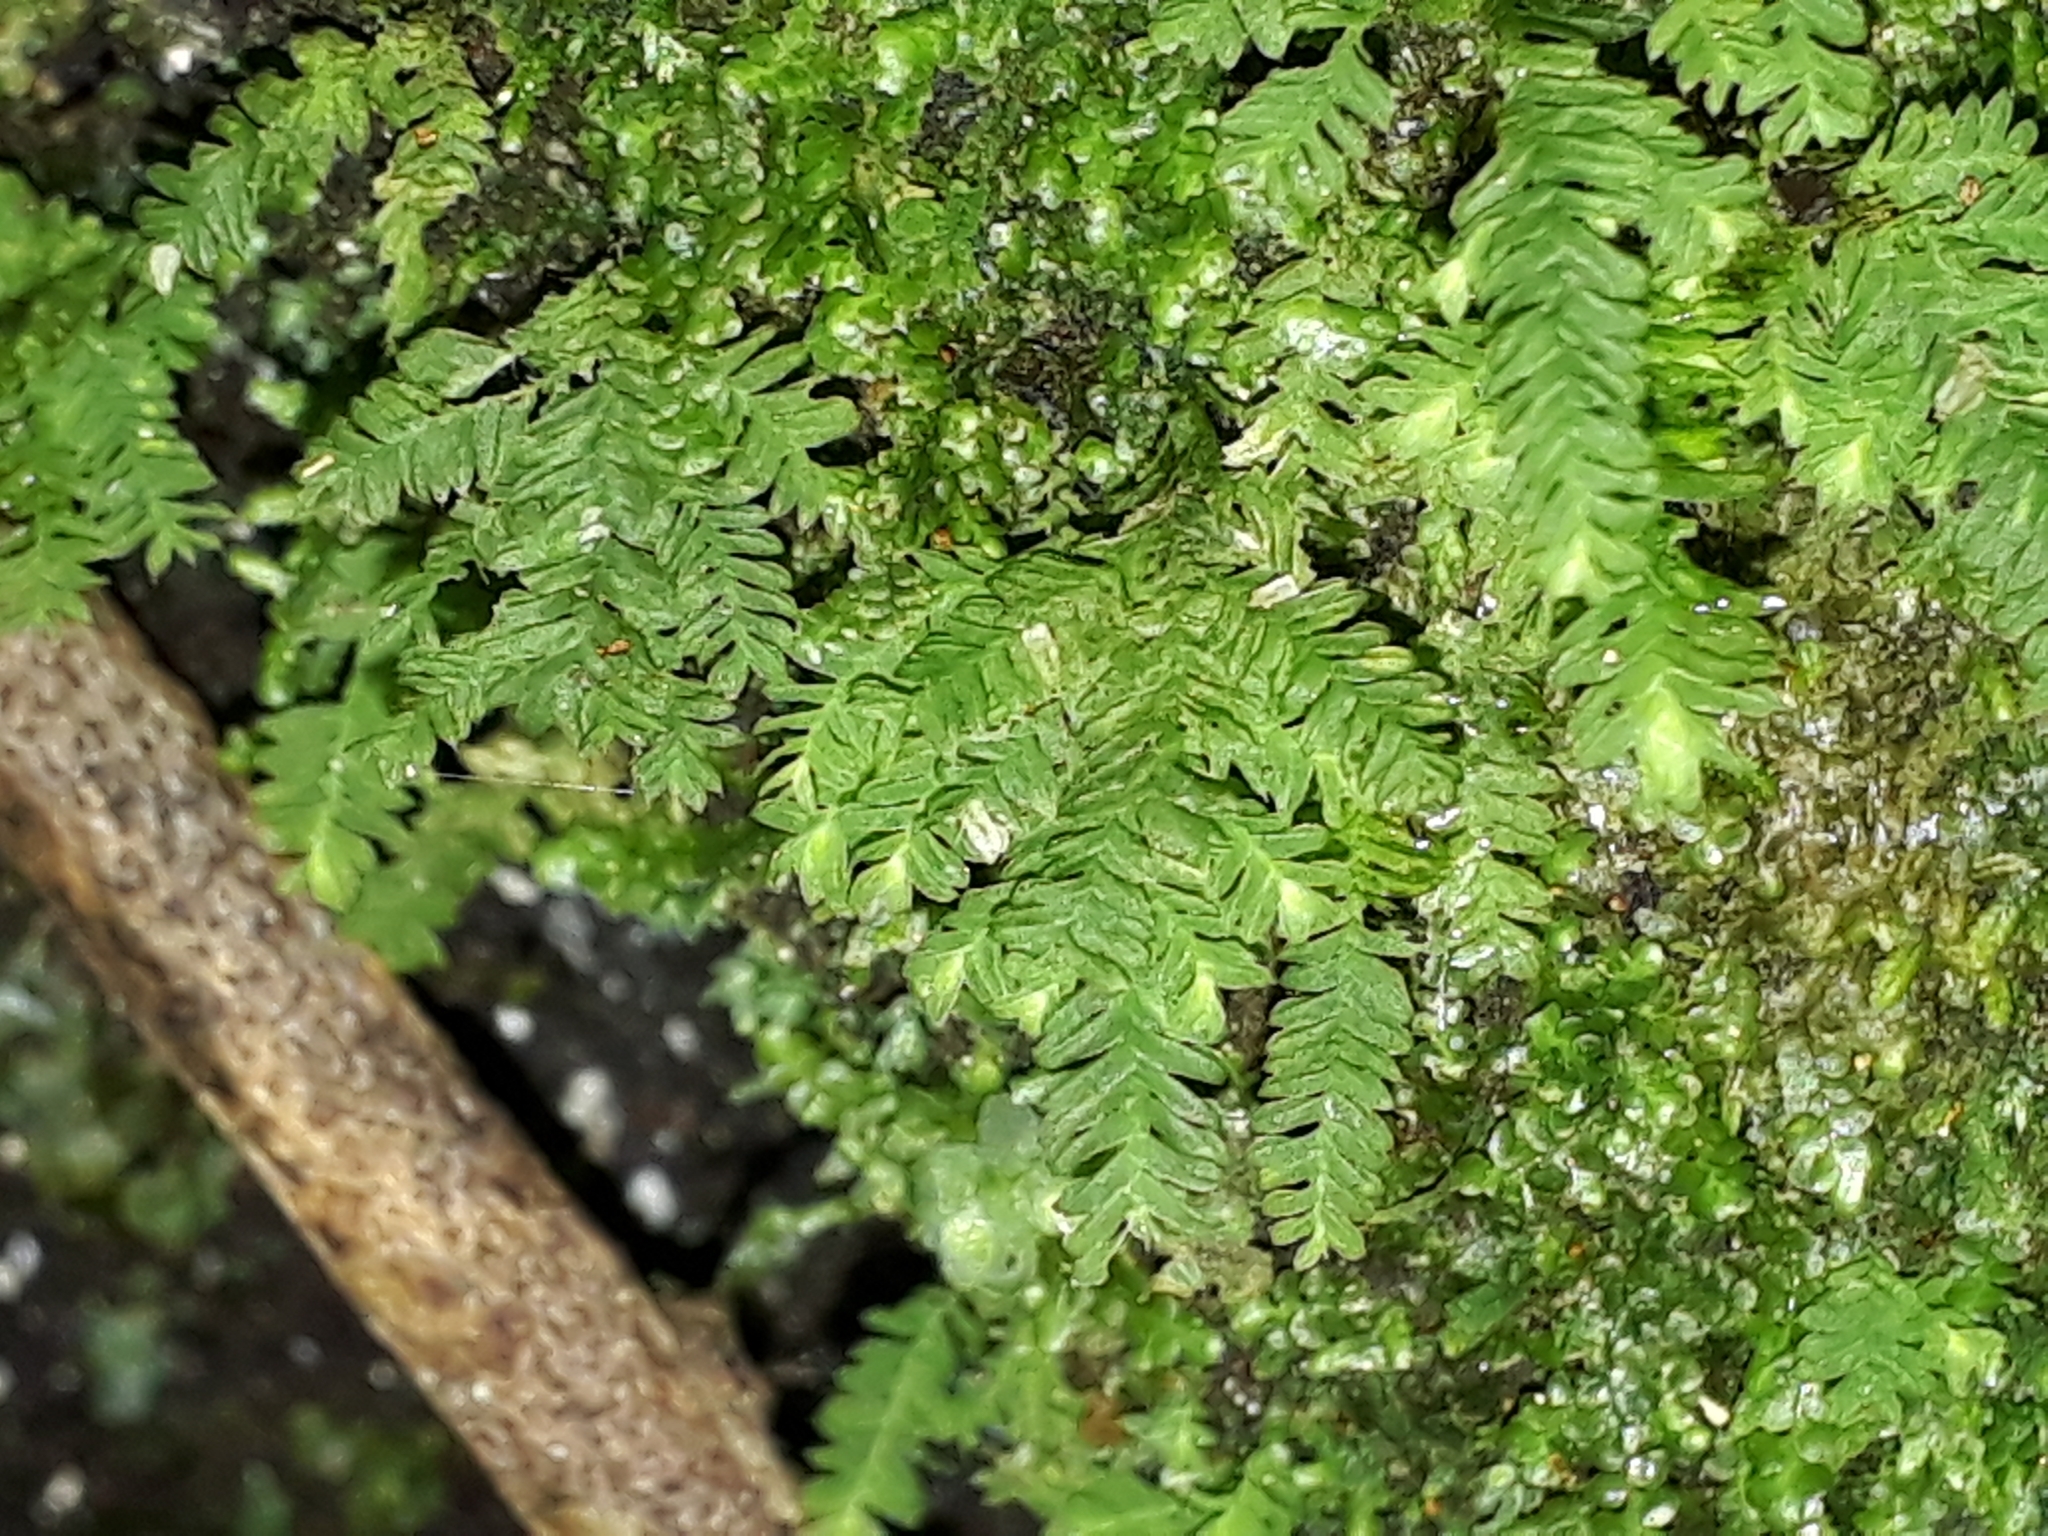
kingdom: Plantae
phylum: Bryophyta
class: Bryopsida
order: Hypopterygiales
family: Hypopterygiaceae
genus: Lopidium
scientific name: Lopidium concinnum
